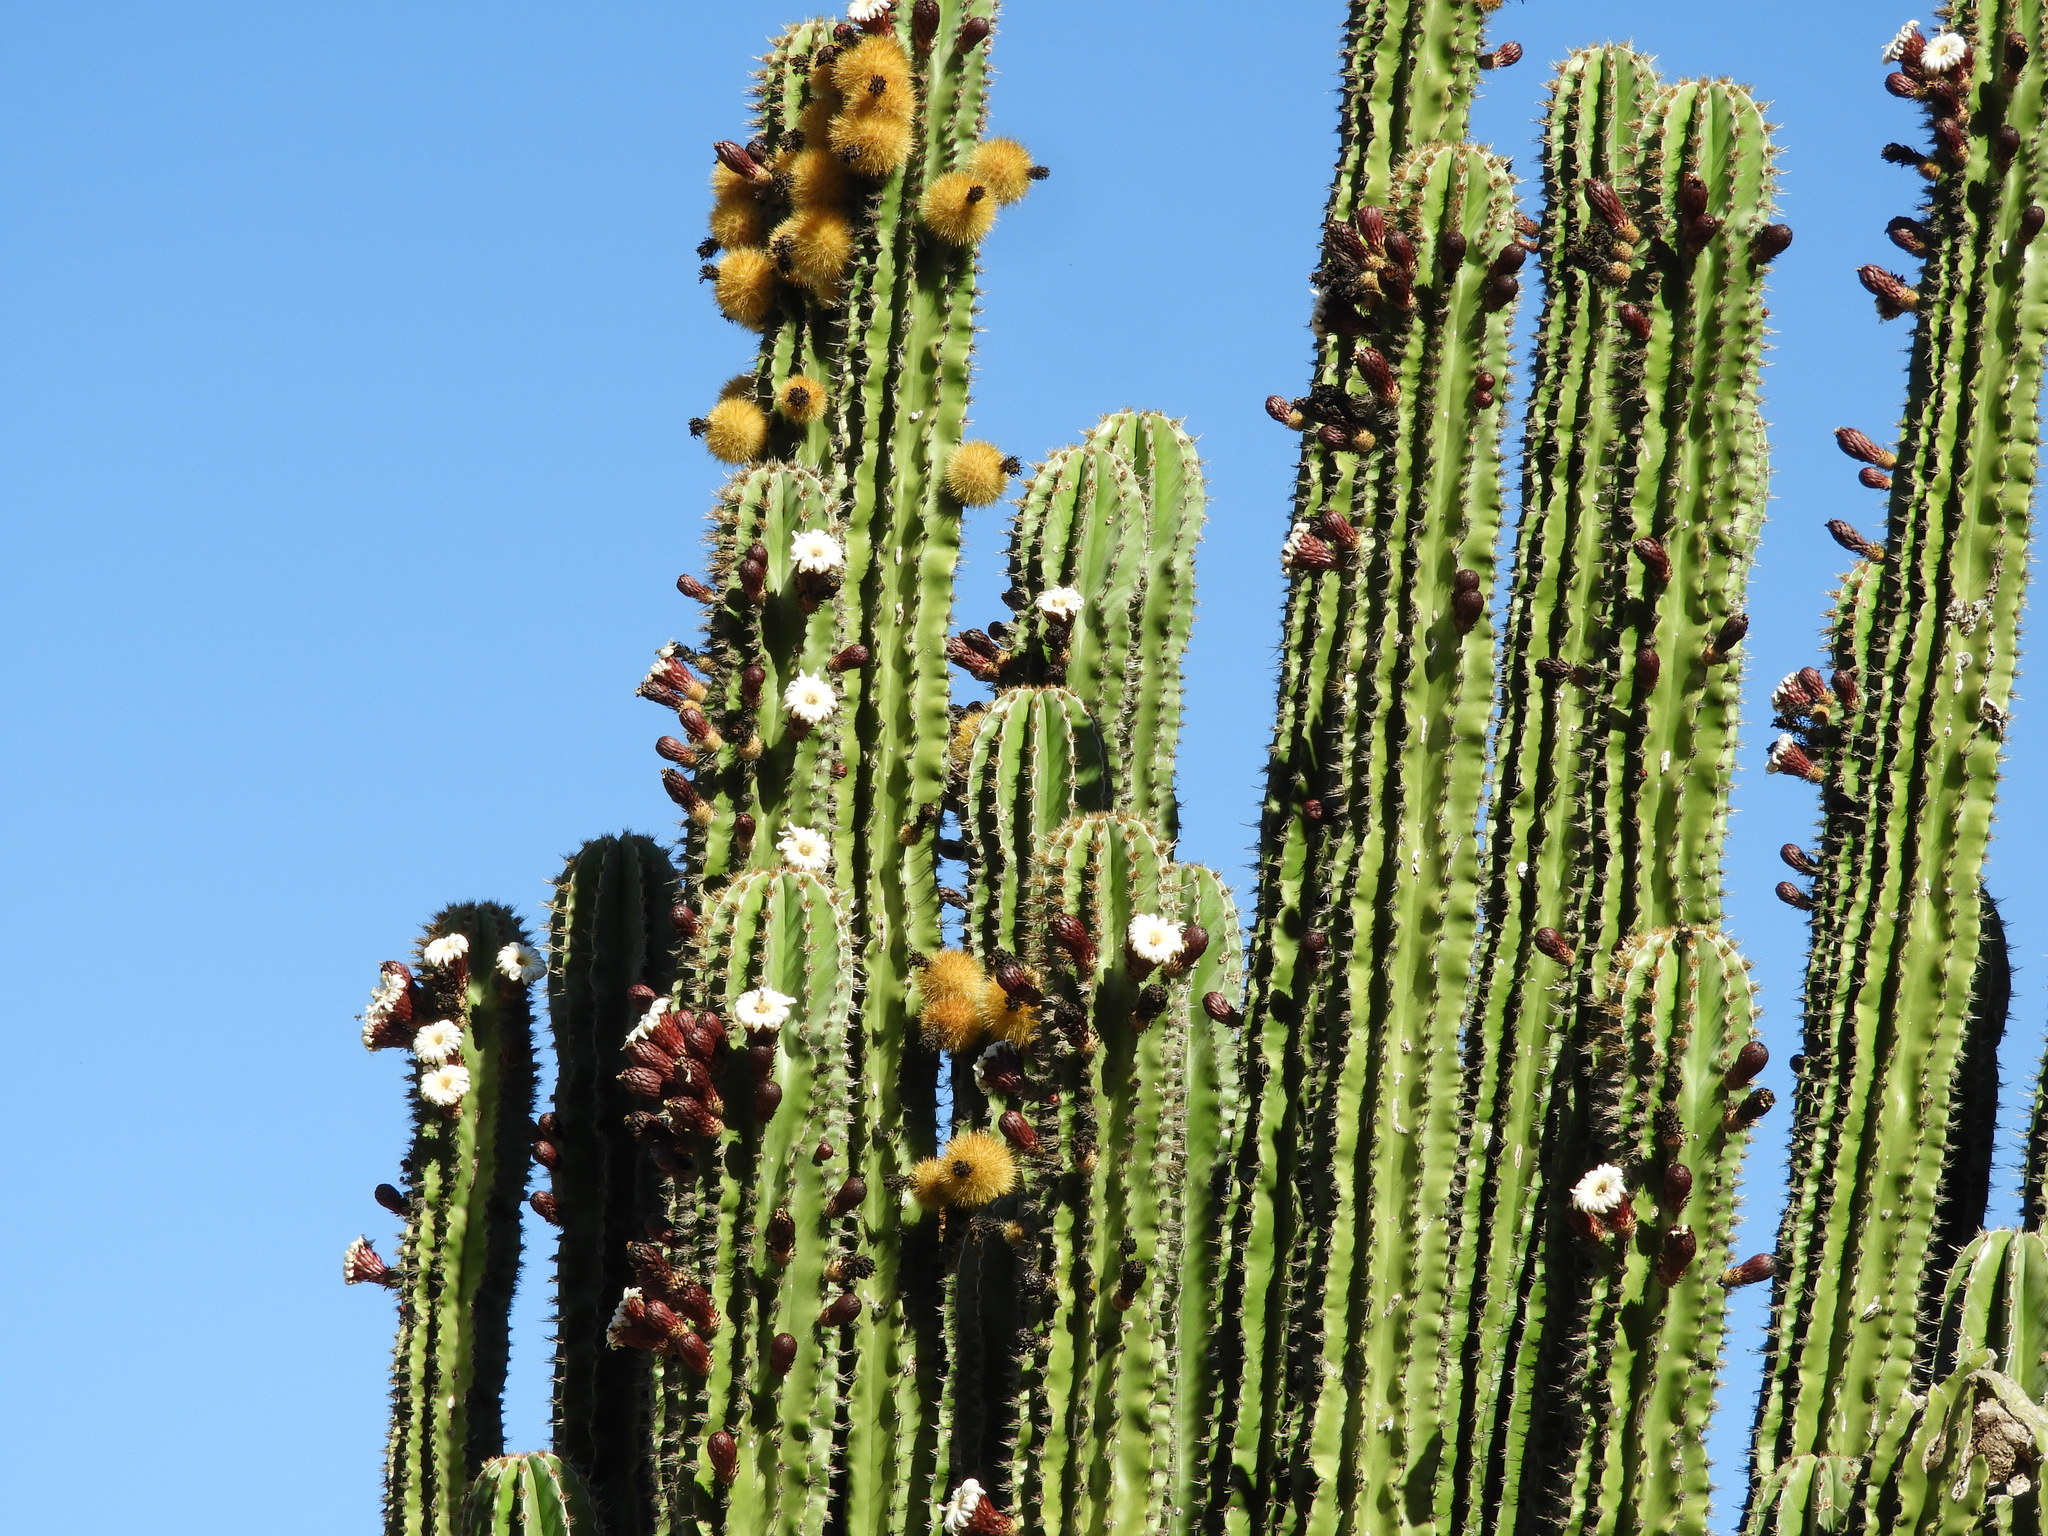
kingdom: Plantae
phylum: Tracheophyta
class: Magnoliopsida
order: Caryophyllales
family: Cactaceae
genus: Pachycereus
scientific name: Pachycereus pecten-aboriginum
